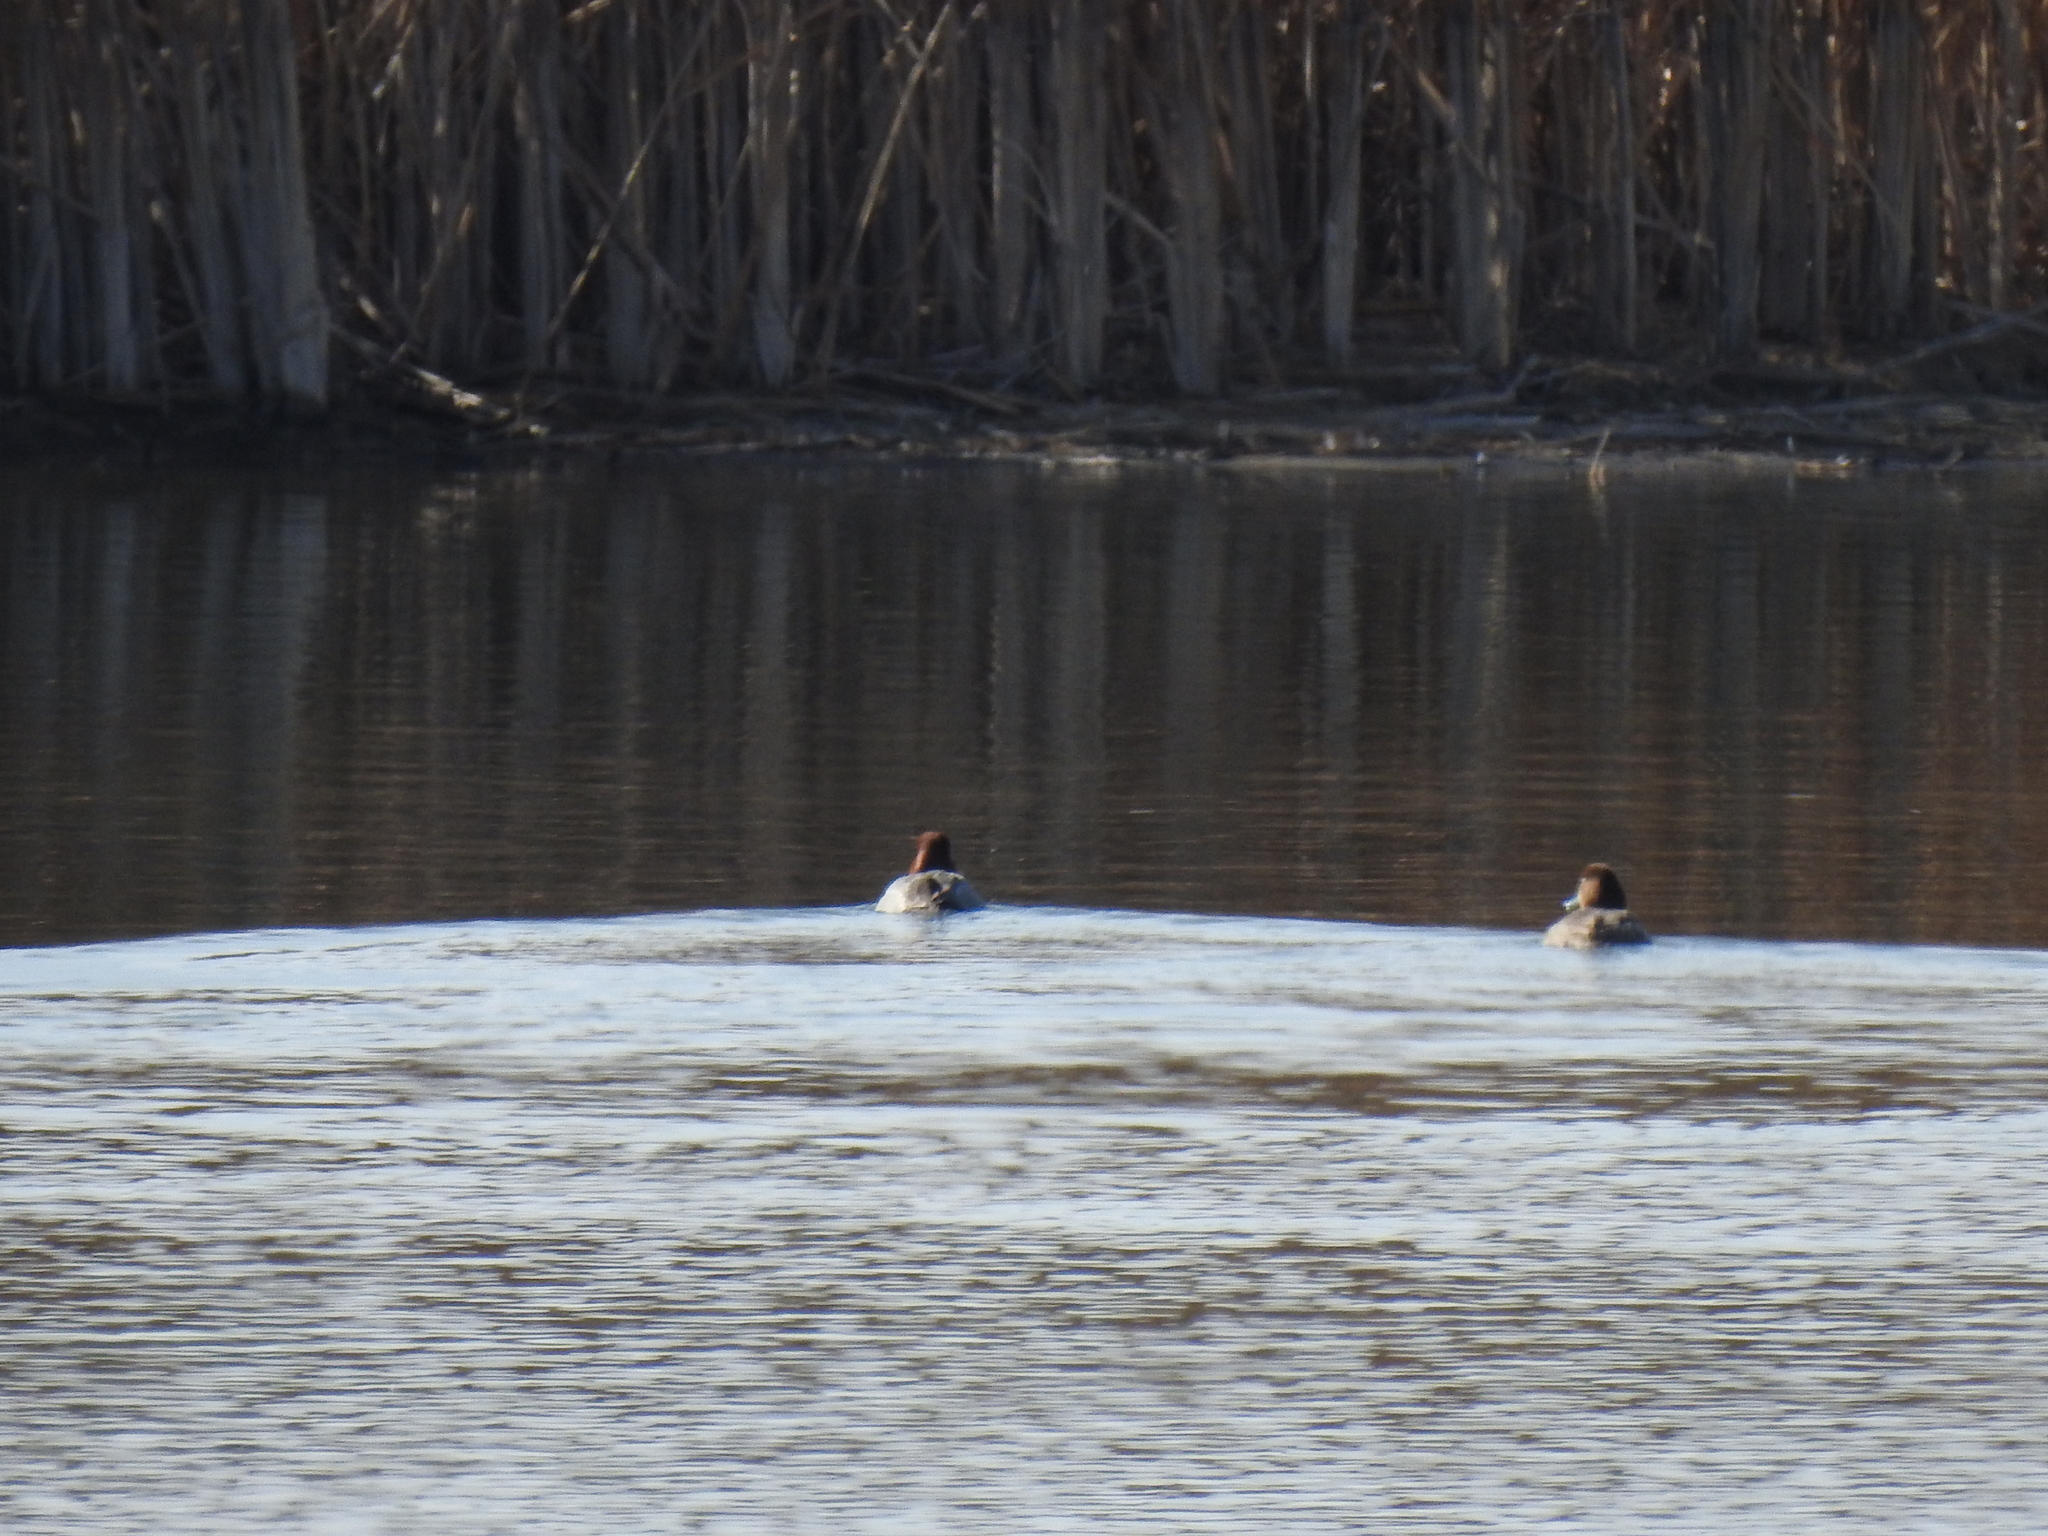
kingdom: Animalia
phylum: Chordata
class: Aves
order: Anseriformes
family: Anatidae
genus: Aythya
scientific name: Aythya americana
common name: Redhead
